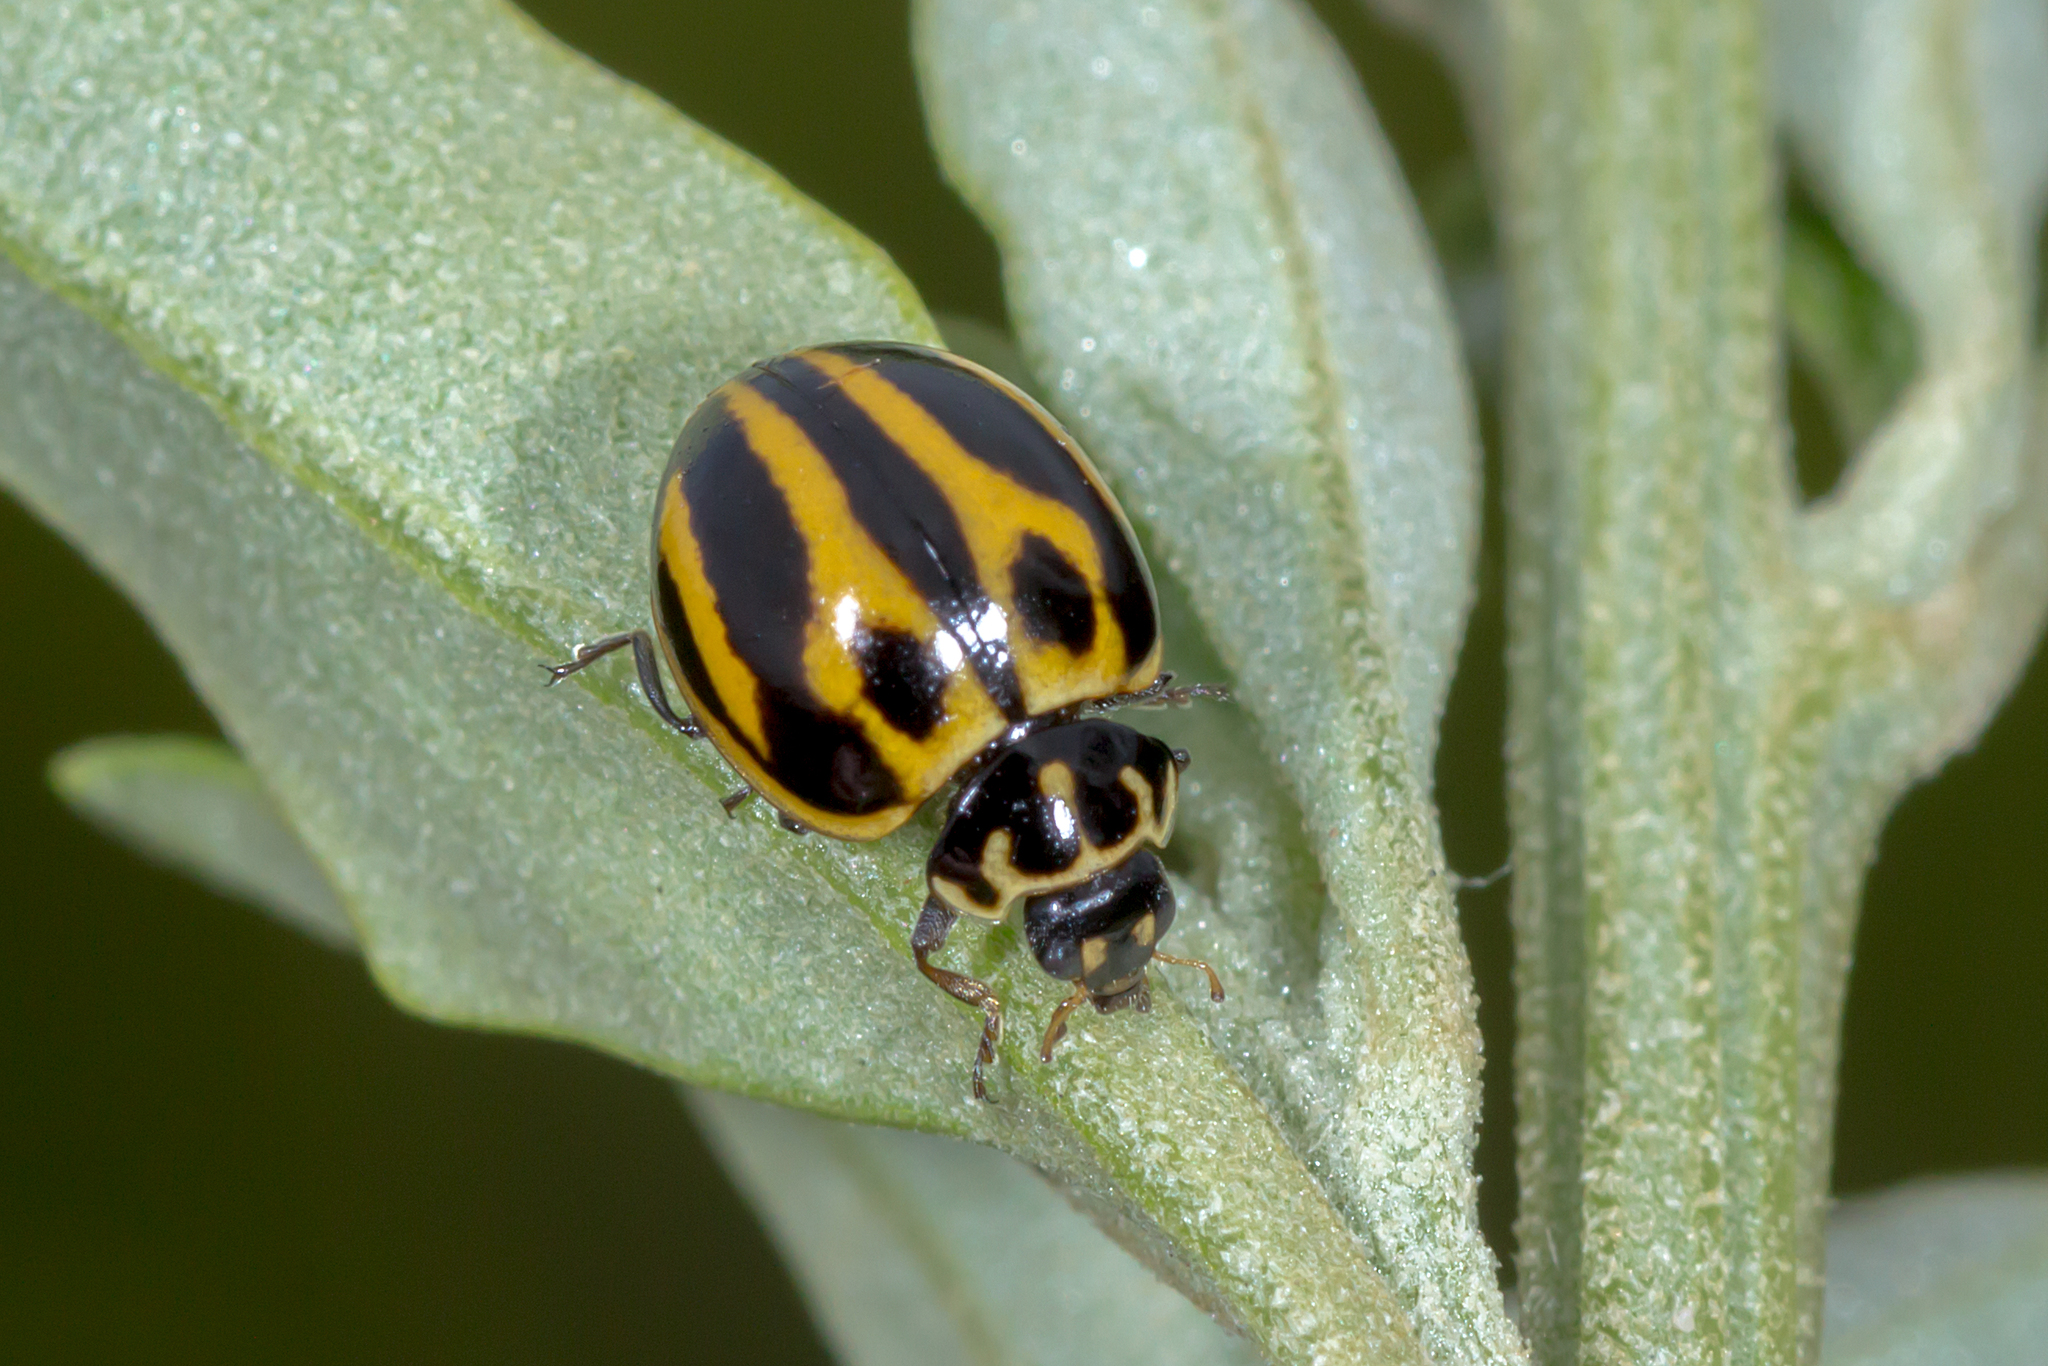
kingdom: Animalia
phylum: Arthropoda
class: Insecta
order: Coleoptera
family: Coccinellidae
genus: Micraspis
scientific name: Micraspis
